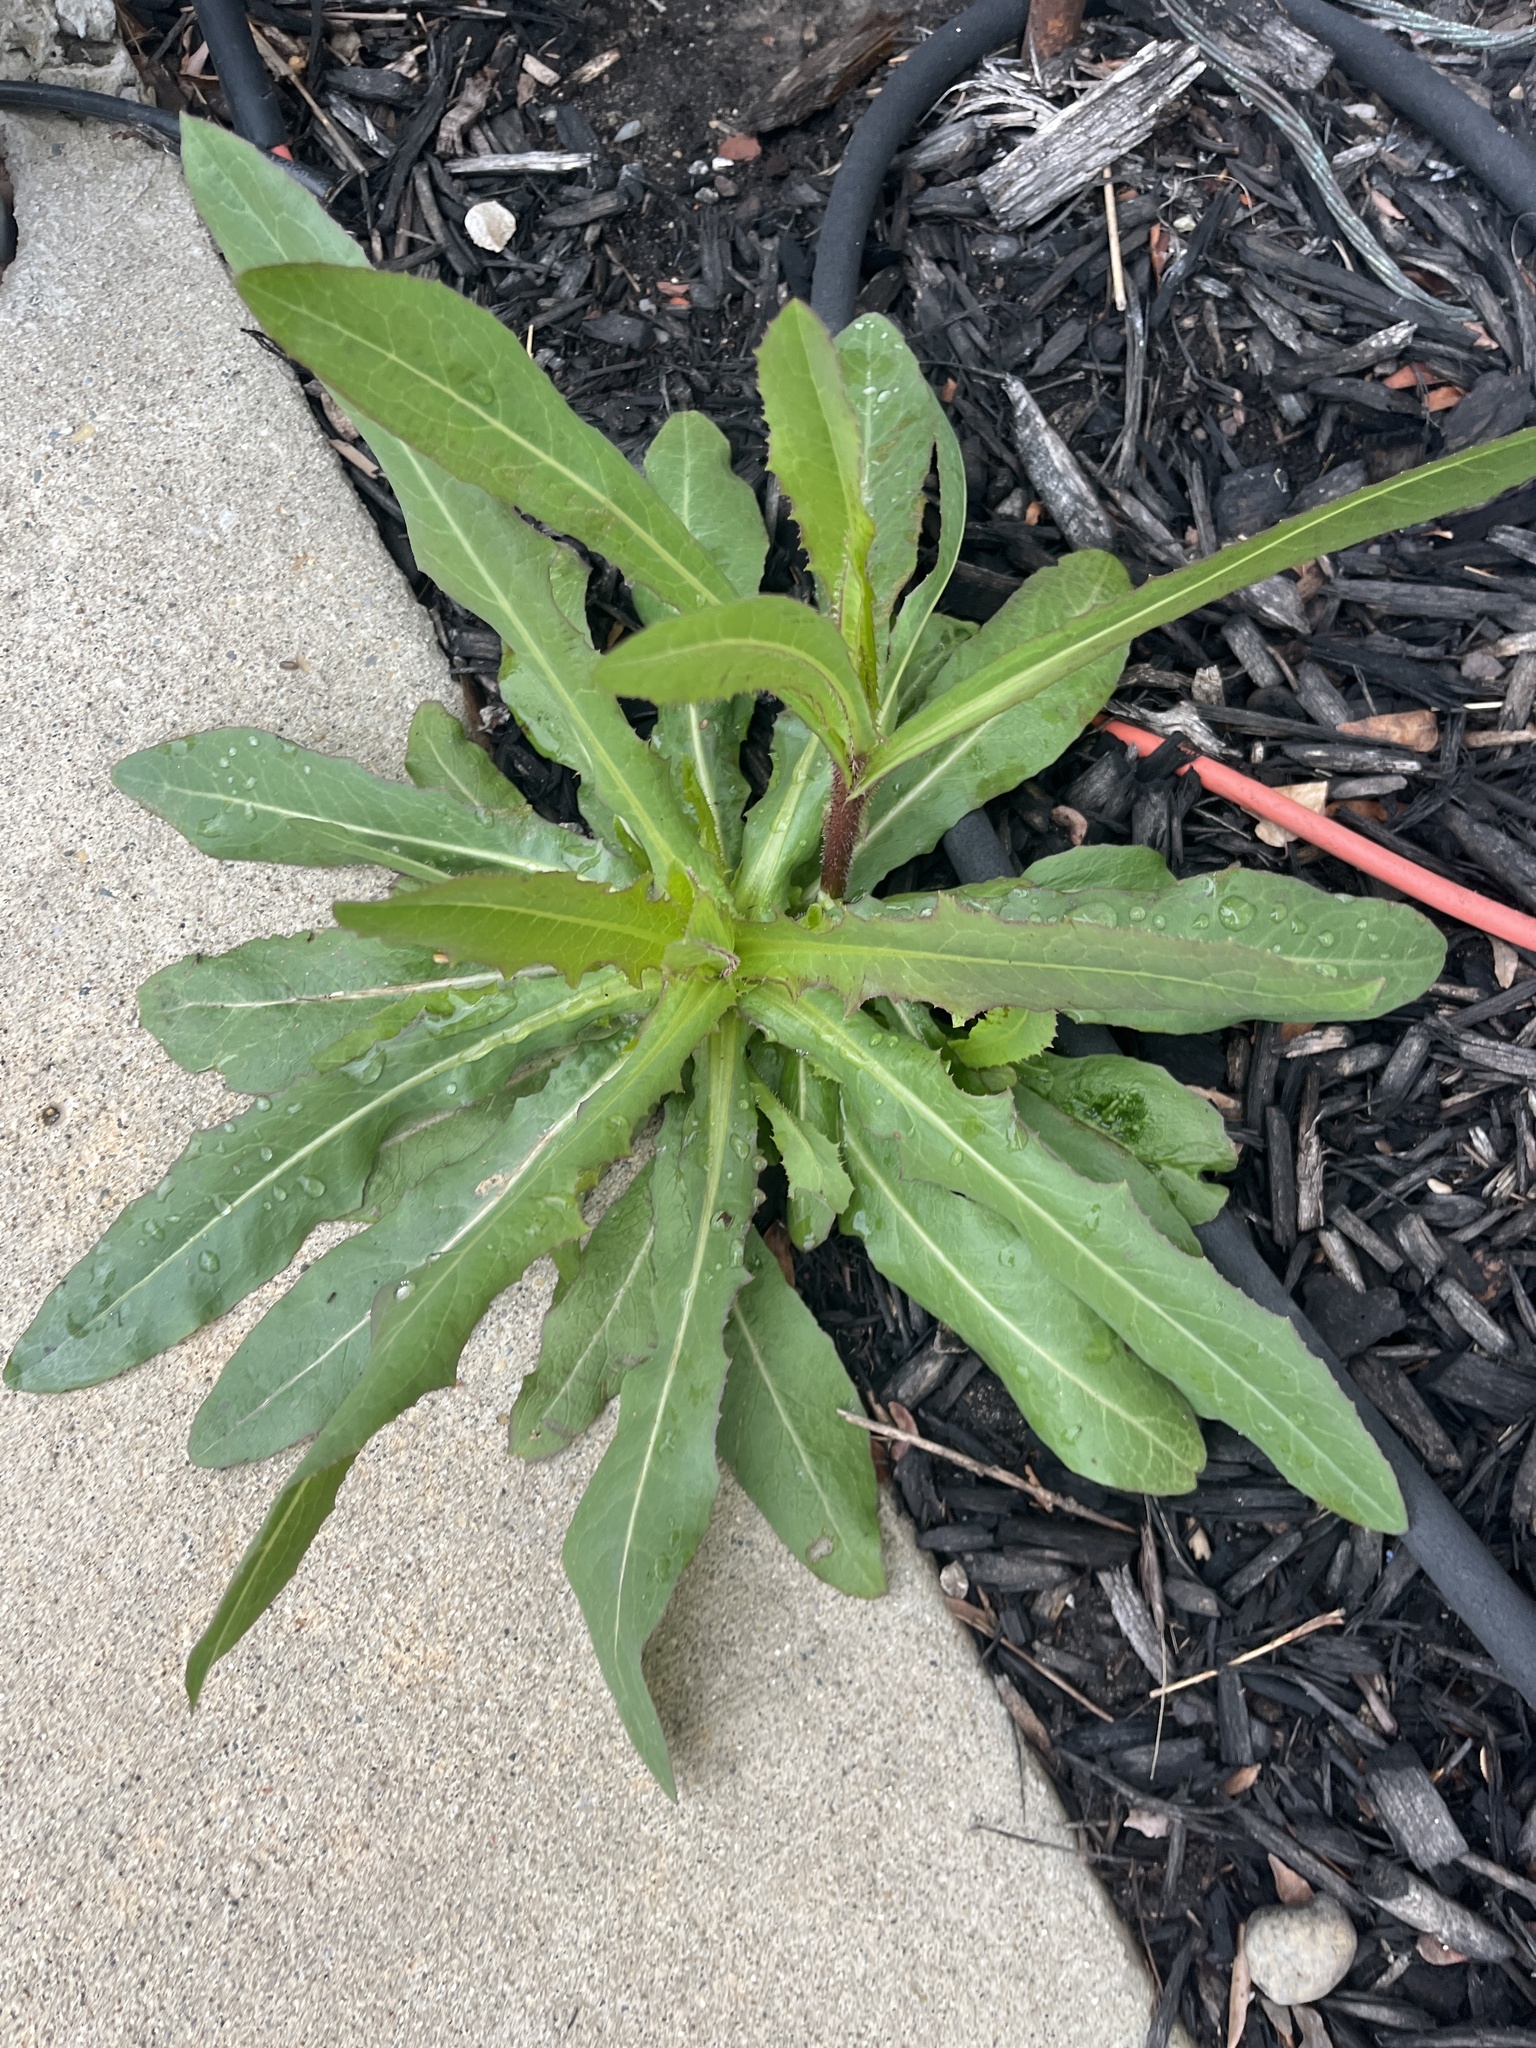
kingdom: Plantae
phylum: Tracheophyta
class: Magnoliopsida
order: Asterales
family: Asteraceae
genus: Lactuca
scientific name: Lactuca serriola
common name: Prickly lettuce
